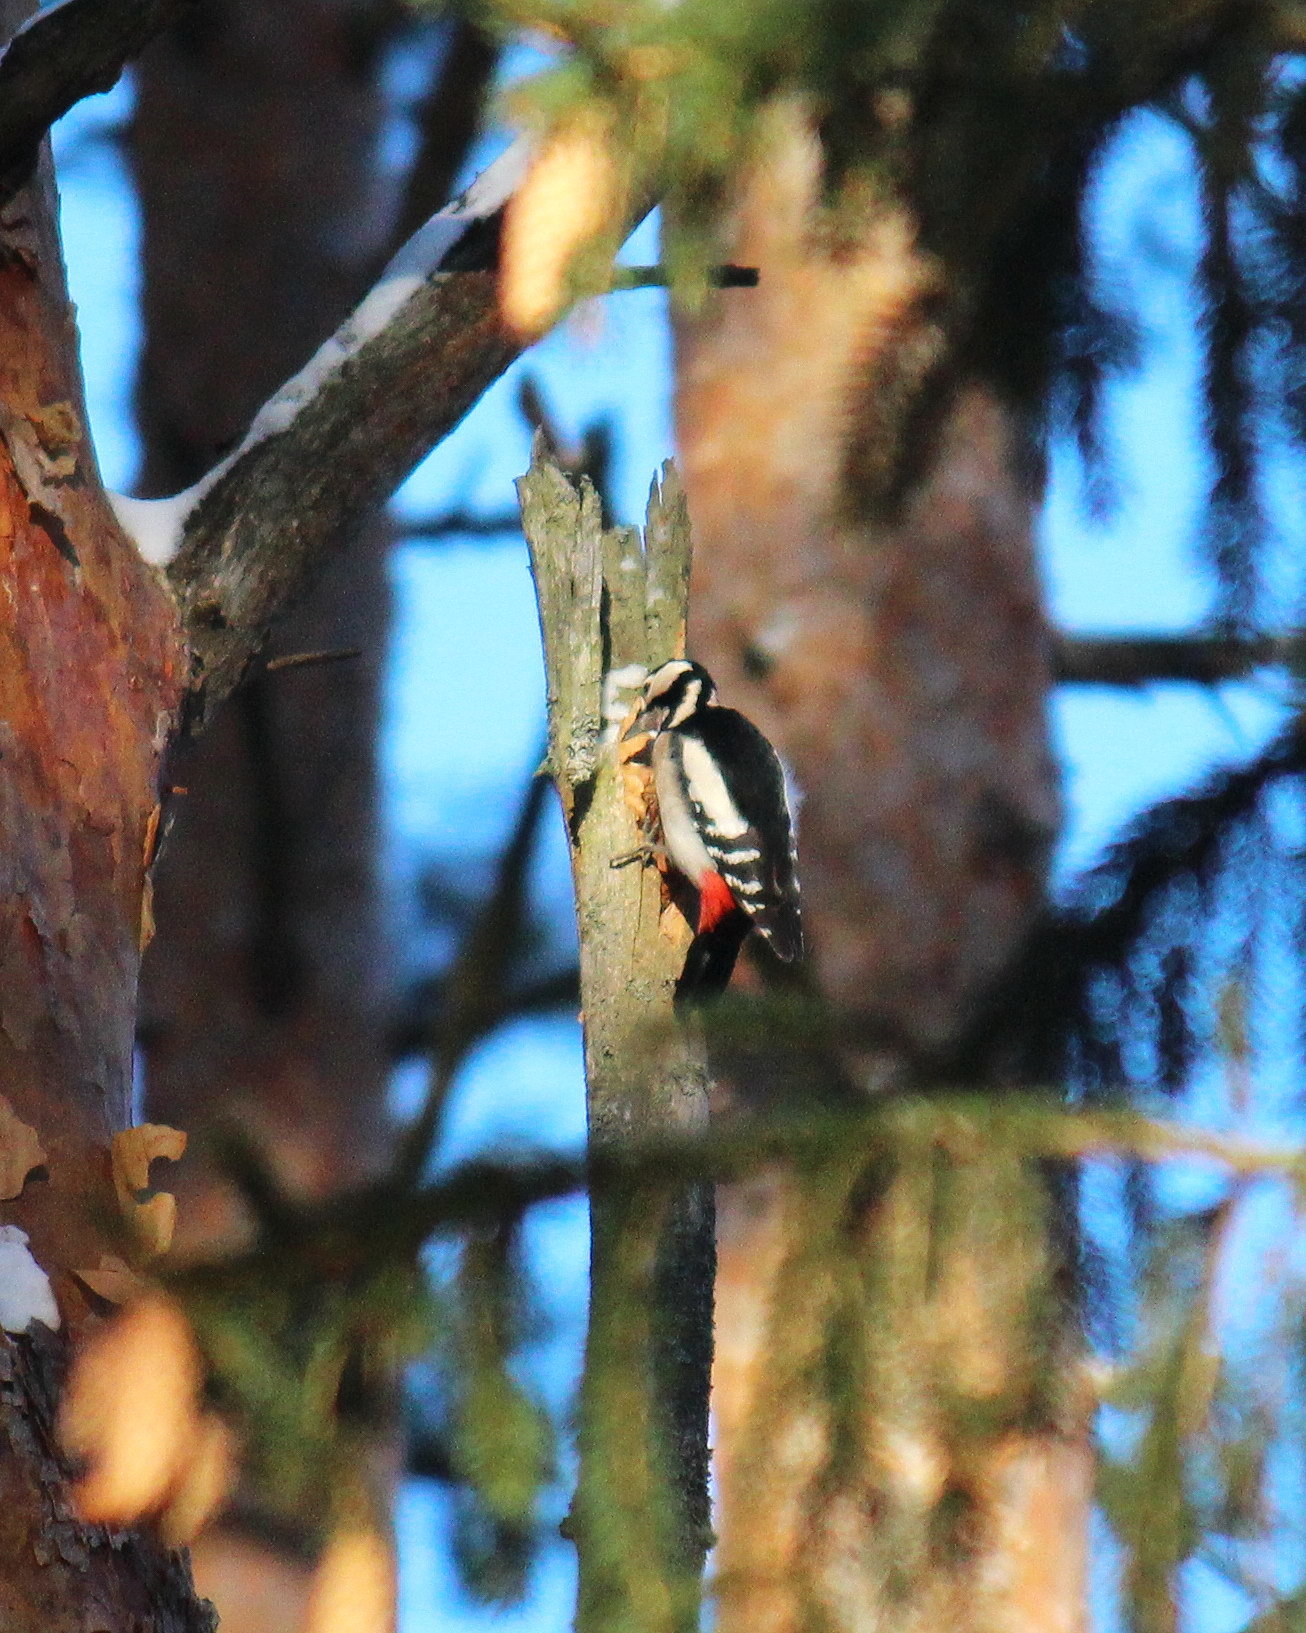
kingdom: Animalia
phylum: Chordata
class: Aves
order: Piciformes
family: Picidae
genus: Dendrocopos
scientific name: Dendrocopos major
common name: Great spotted woodpecker
